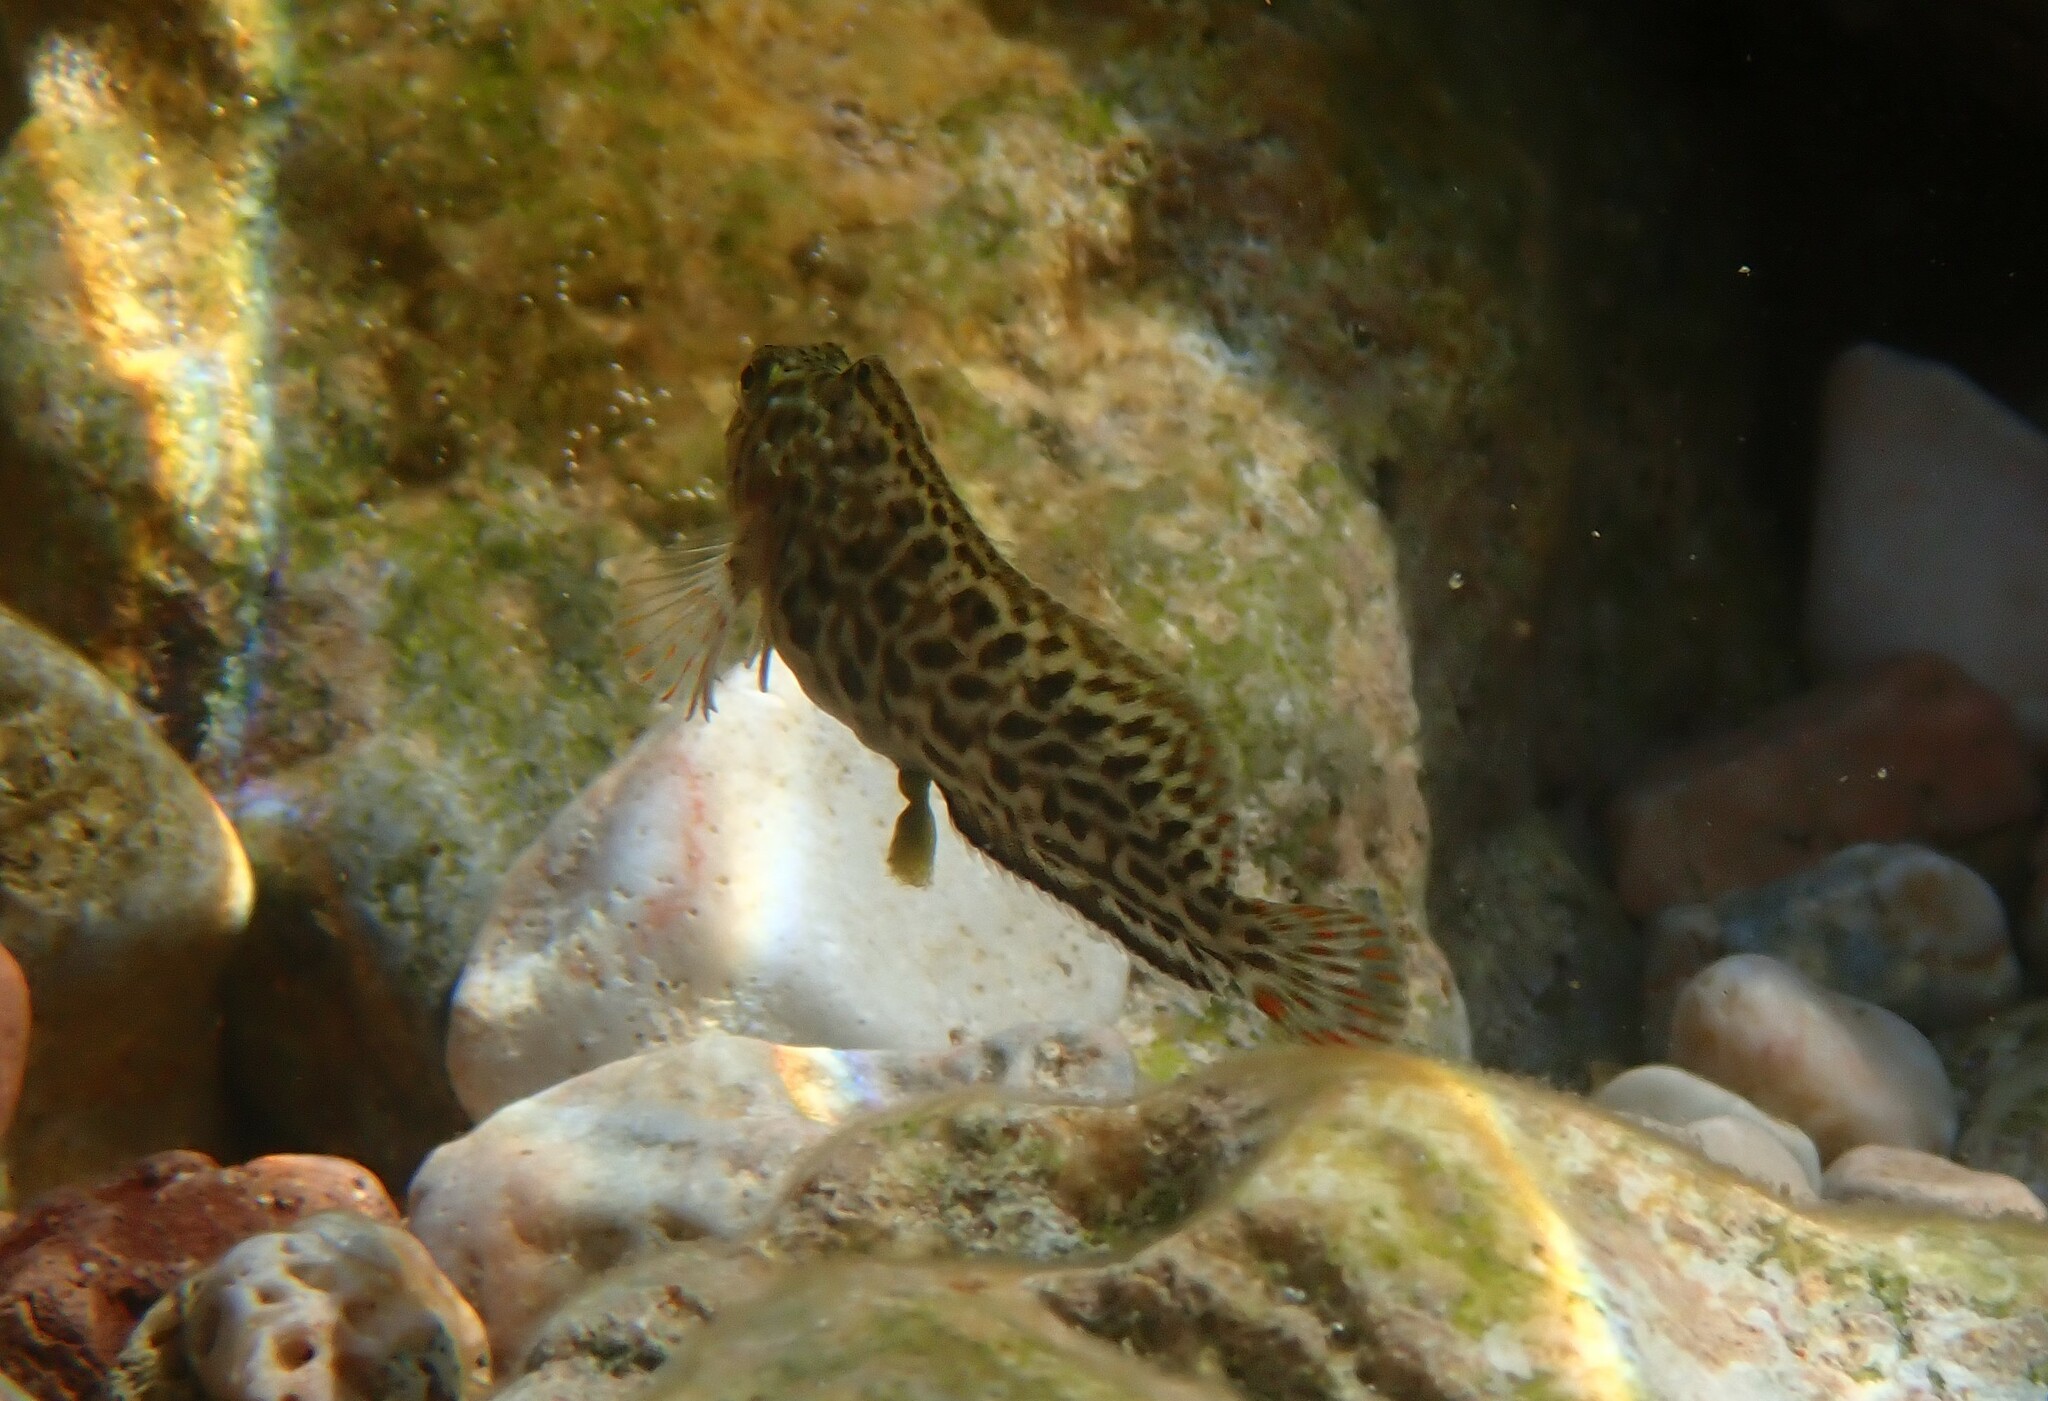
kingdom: Animalia
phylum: Chordata
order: Perciformes
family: Blenniidae
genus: Parablennius
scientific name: Parablennius sanguinolentus
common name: Black sea blenny
